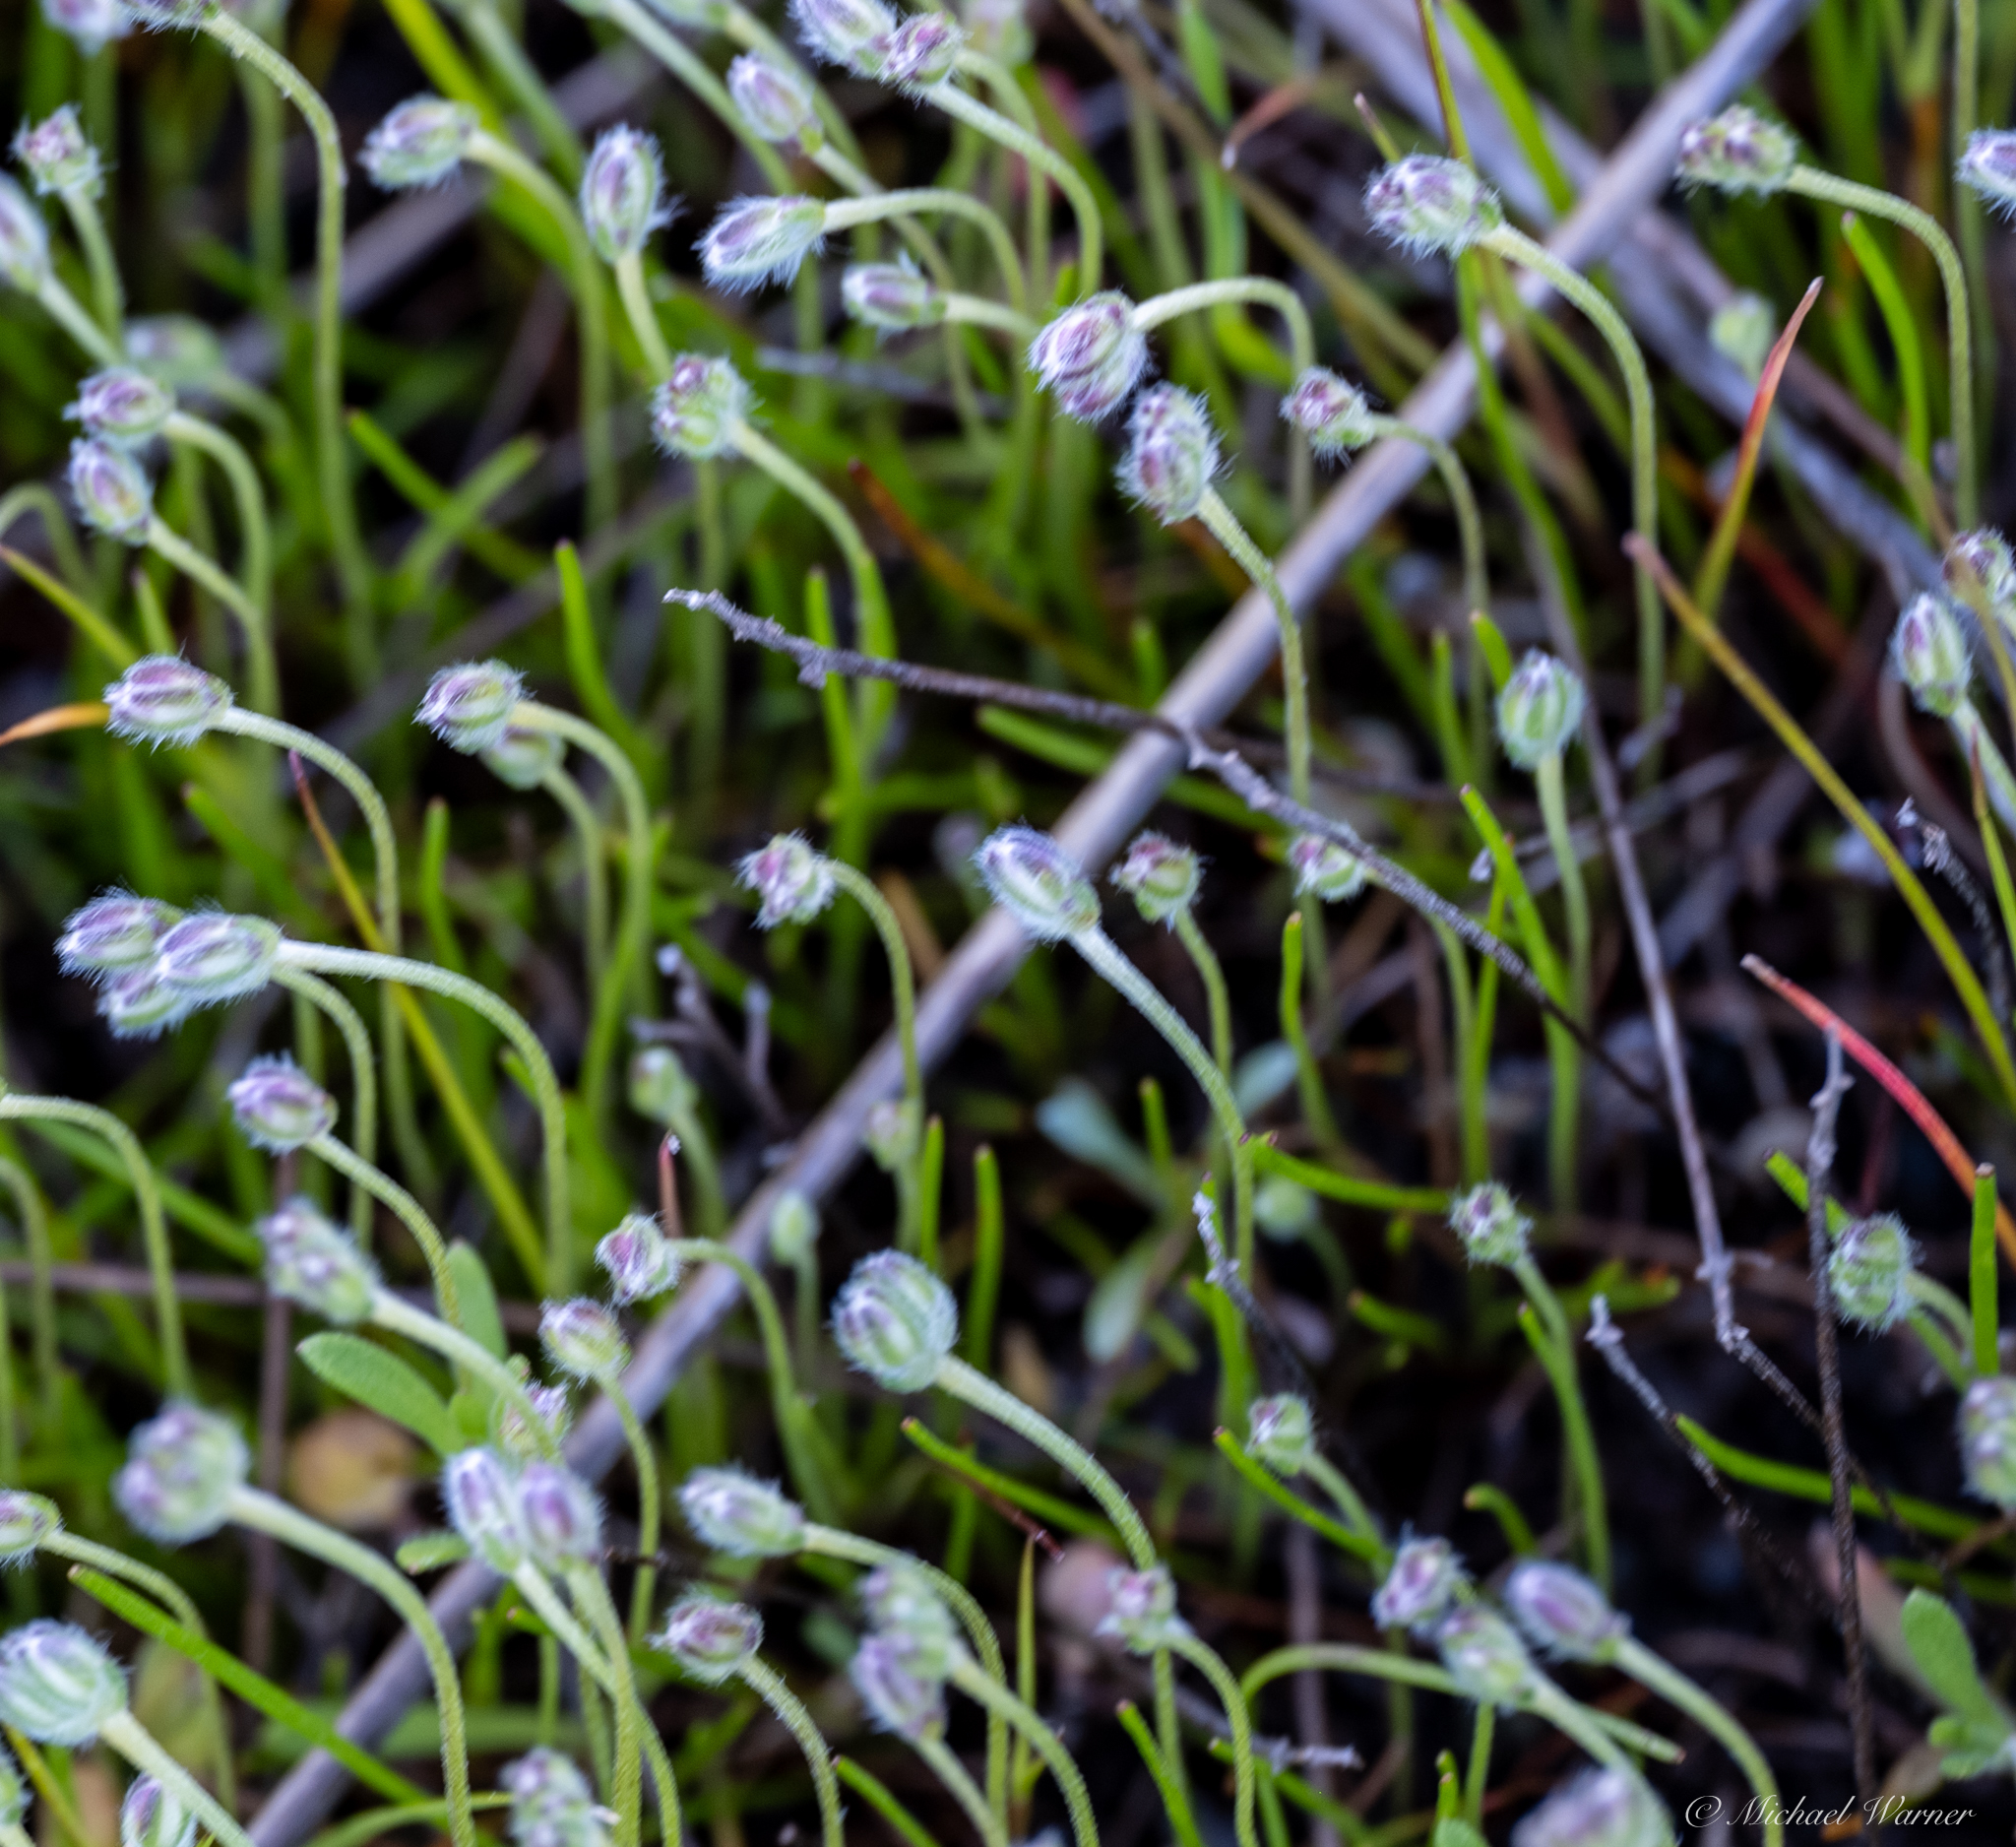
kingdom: Plantae
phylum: Tracheophyta
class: Magnoliopsida
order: Lamiales
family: Plantaginaceae
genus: Plantago
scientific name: Plantago erecta
